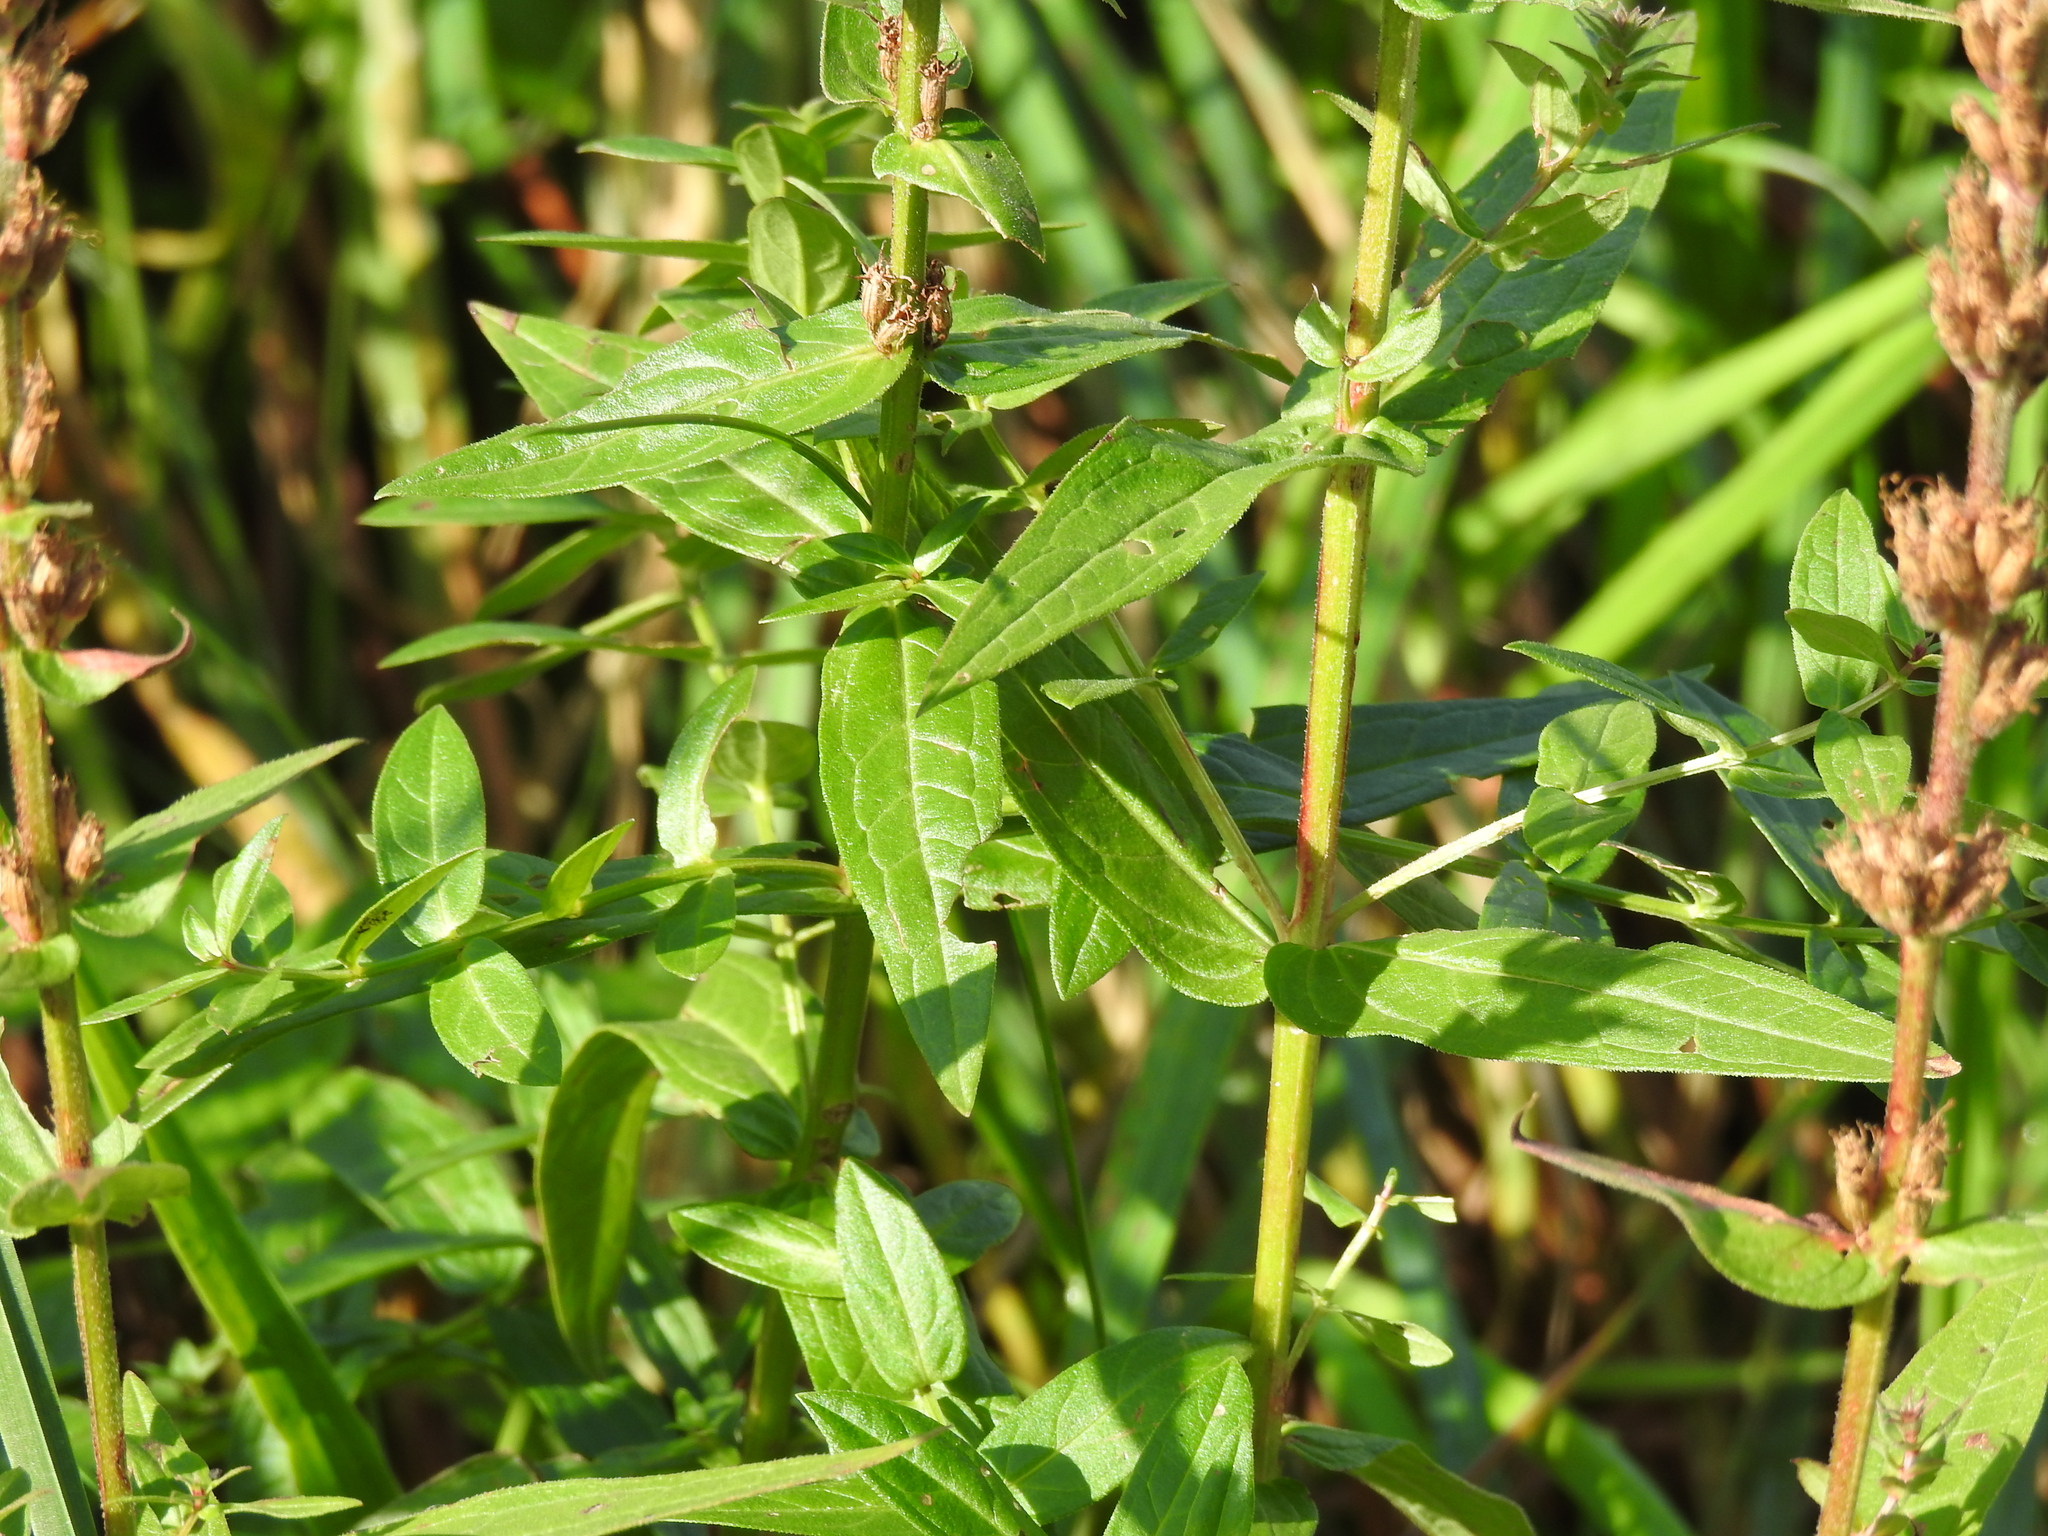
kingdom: Plantae
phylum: Tracheophyta
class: Magnoliopsida
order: Myrtales
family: Lythraceae
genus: Lythrum
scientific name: Lythrum salicaria
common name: Purple loosestrife
